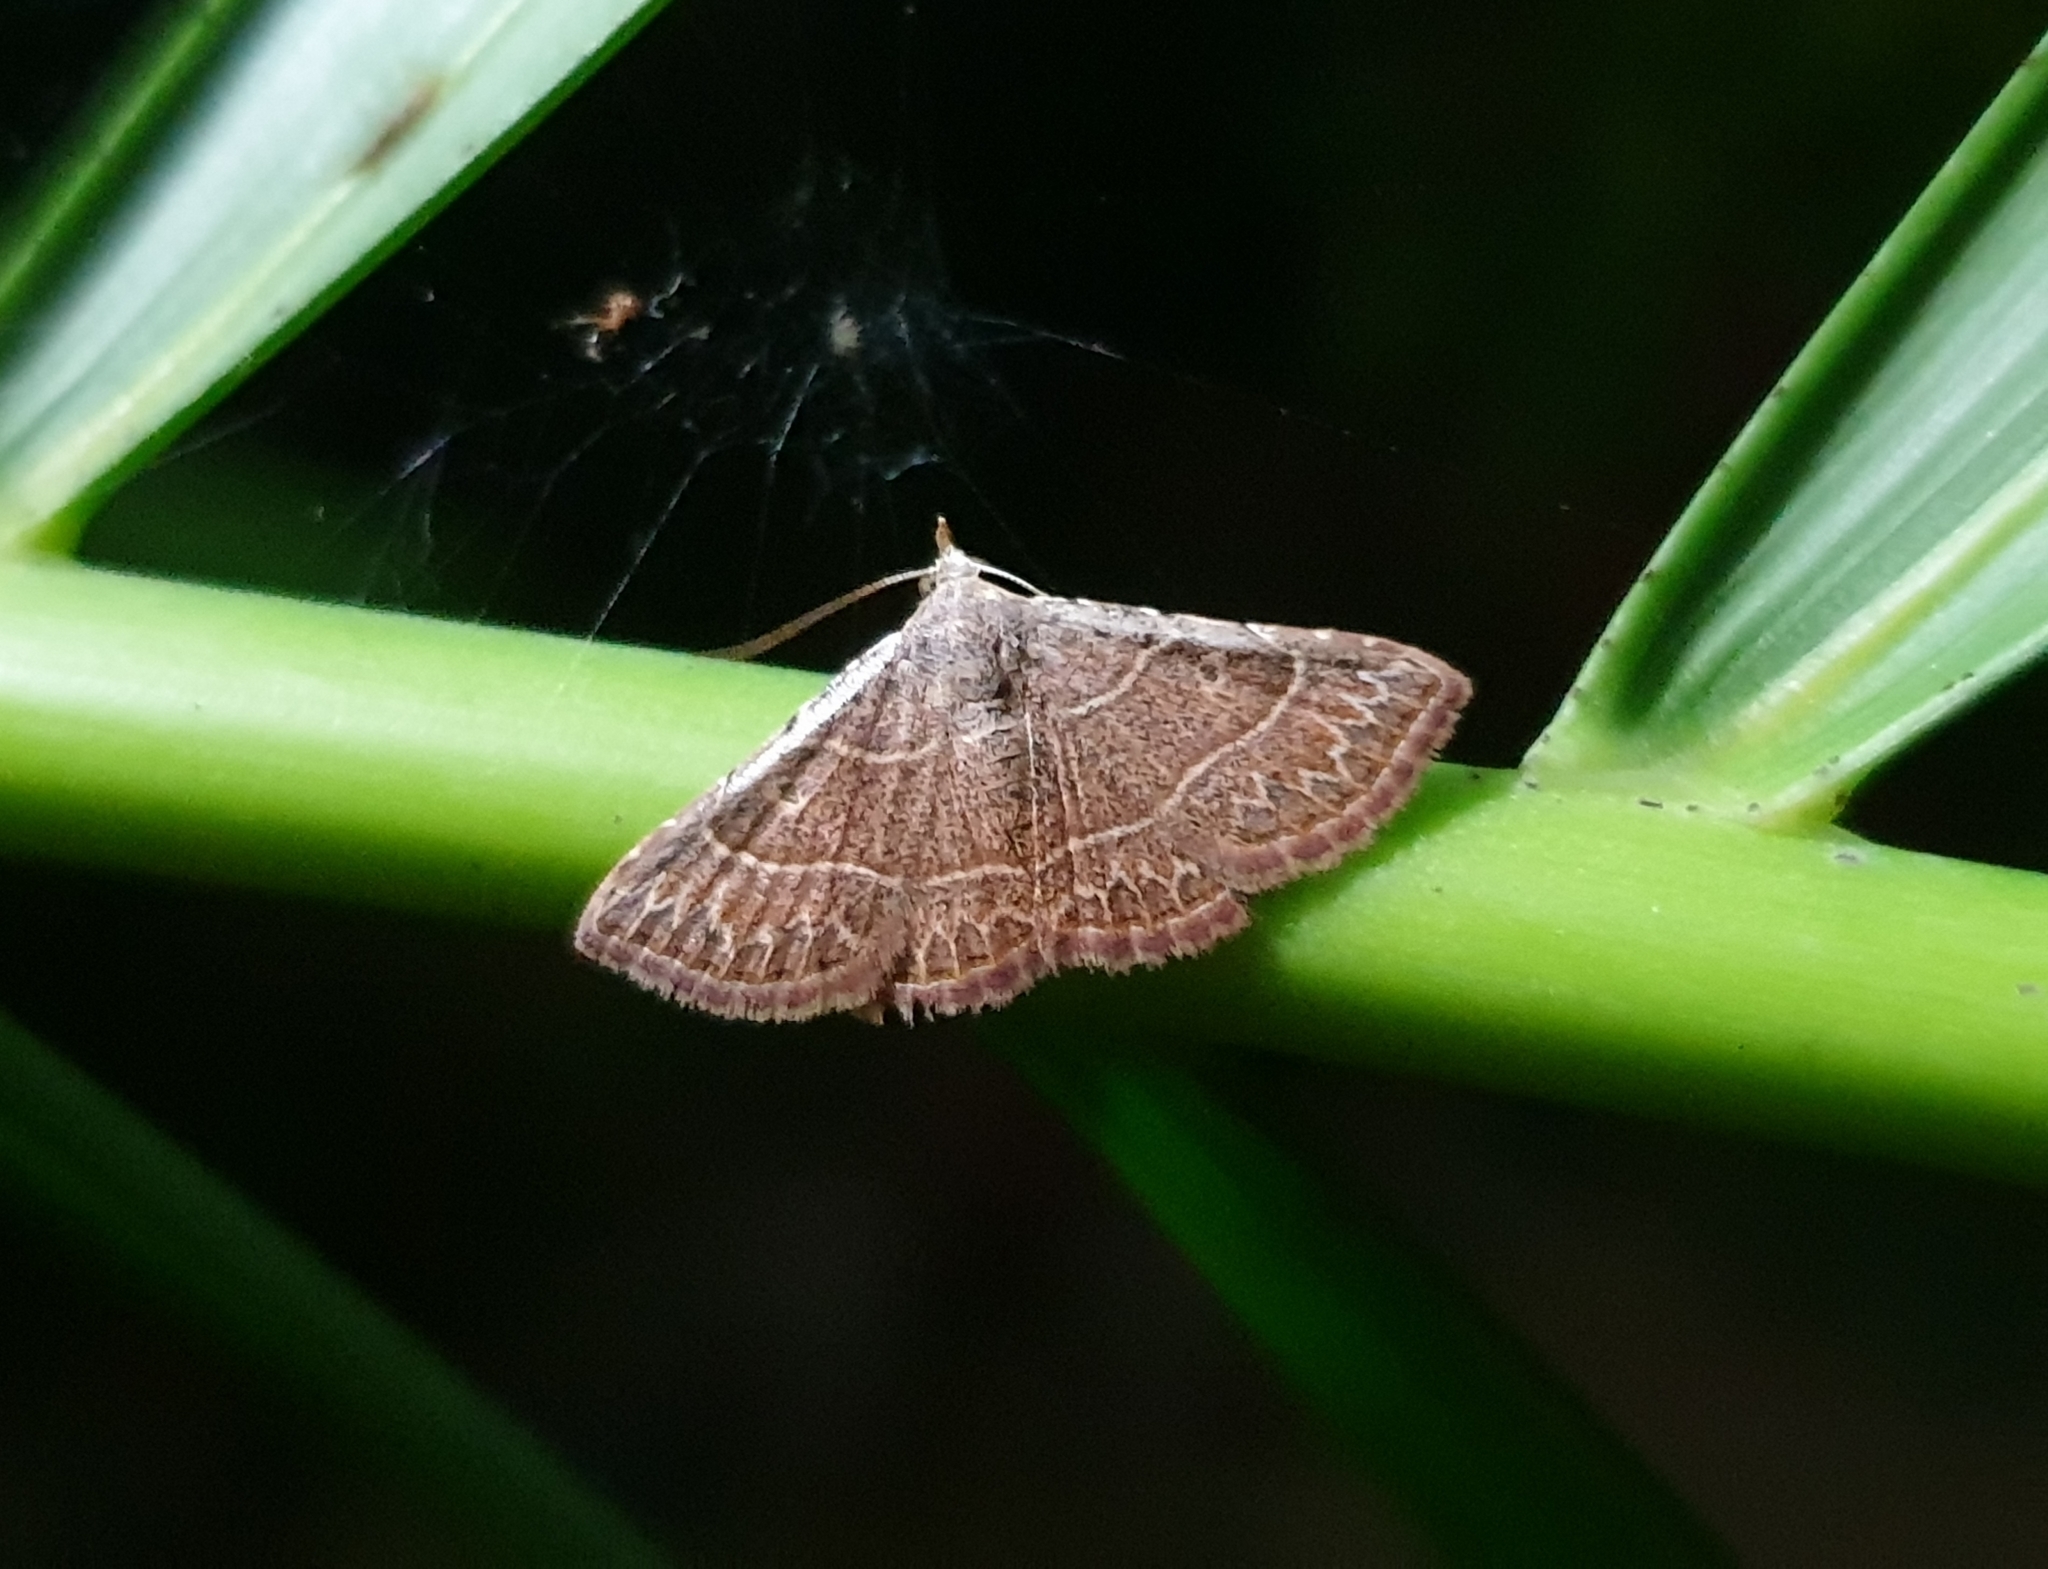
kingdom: Animalia
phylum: Arthropoda
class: Insecta
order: Lepidoptera
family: Erebidae
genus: Corgatha
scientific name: Corgatha dictaria
